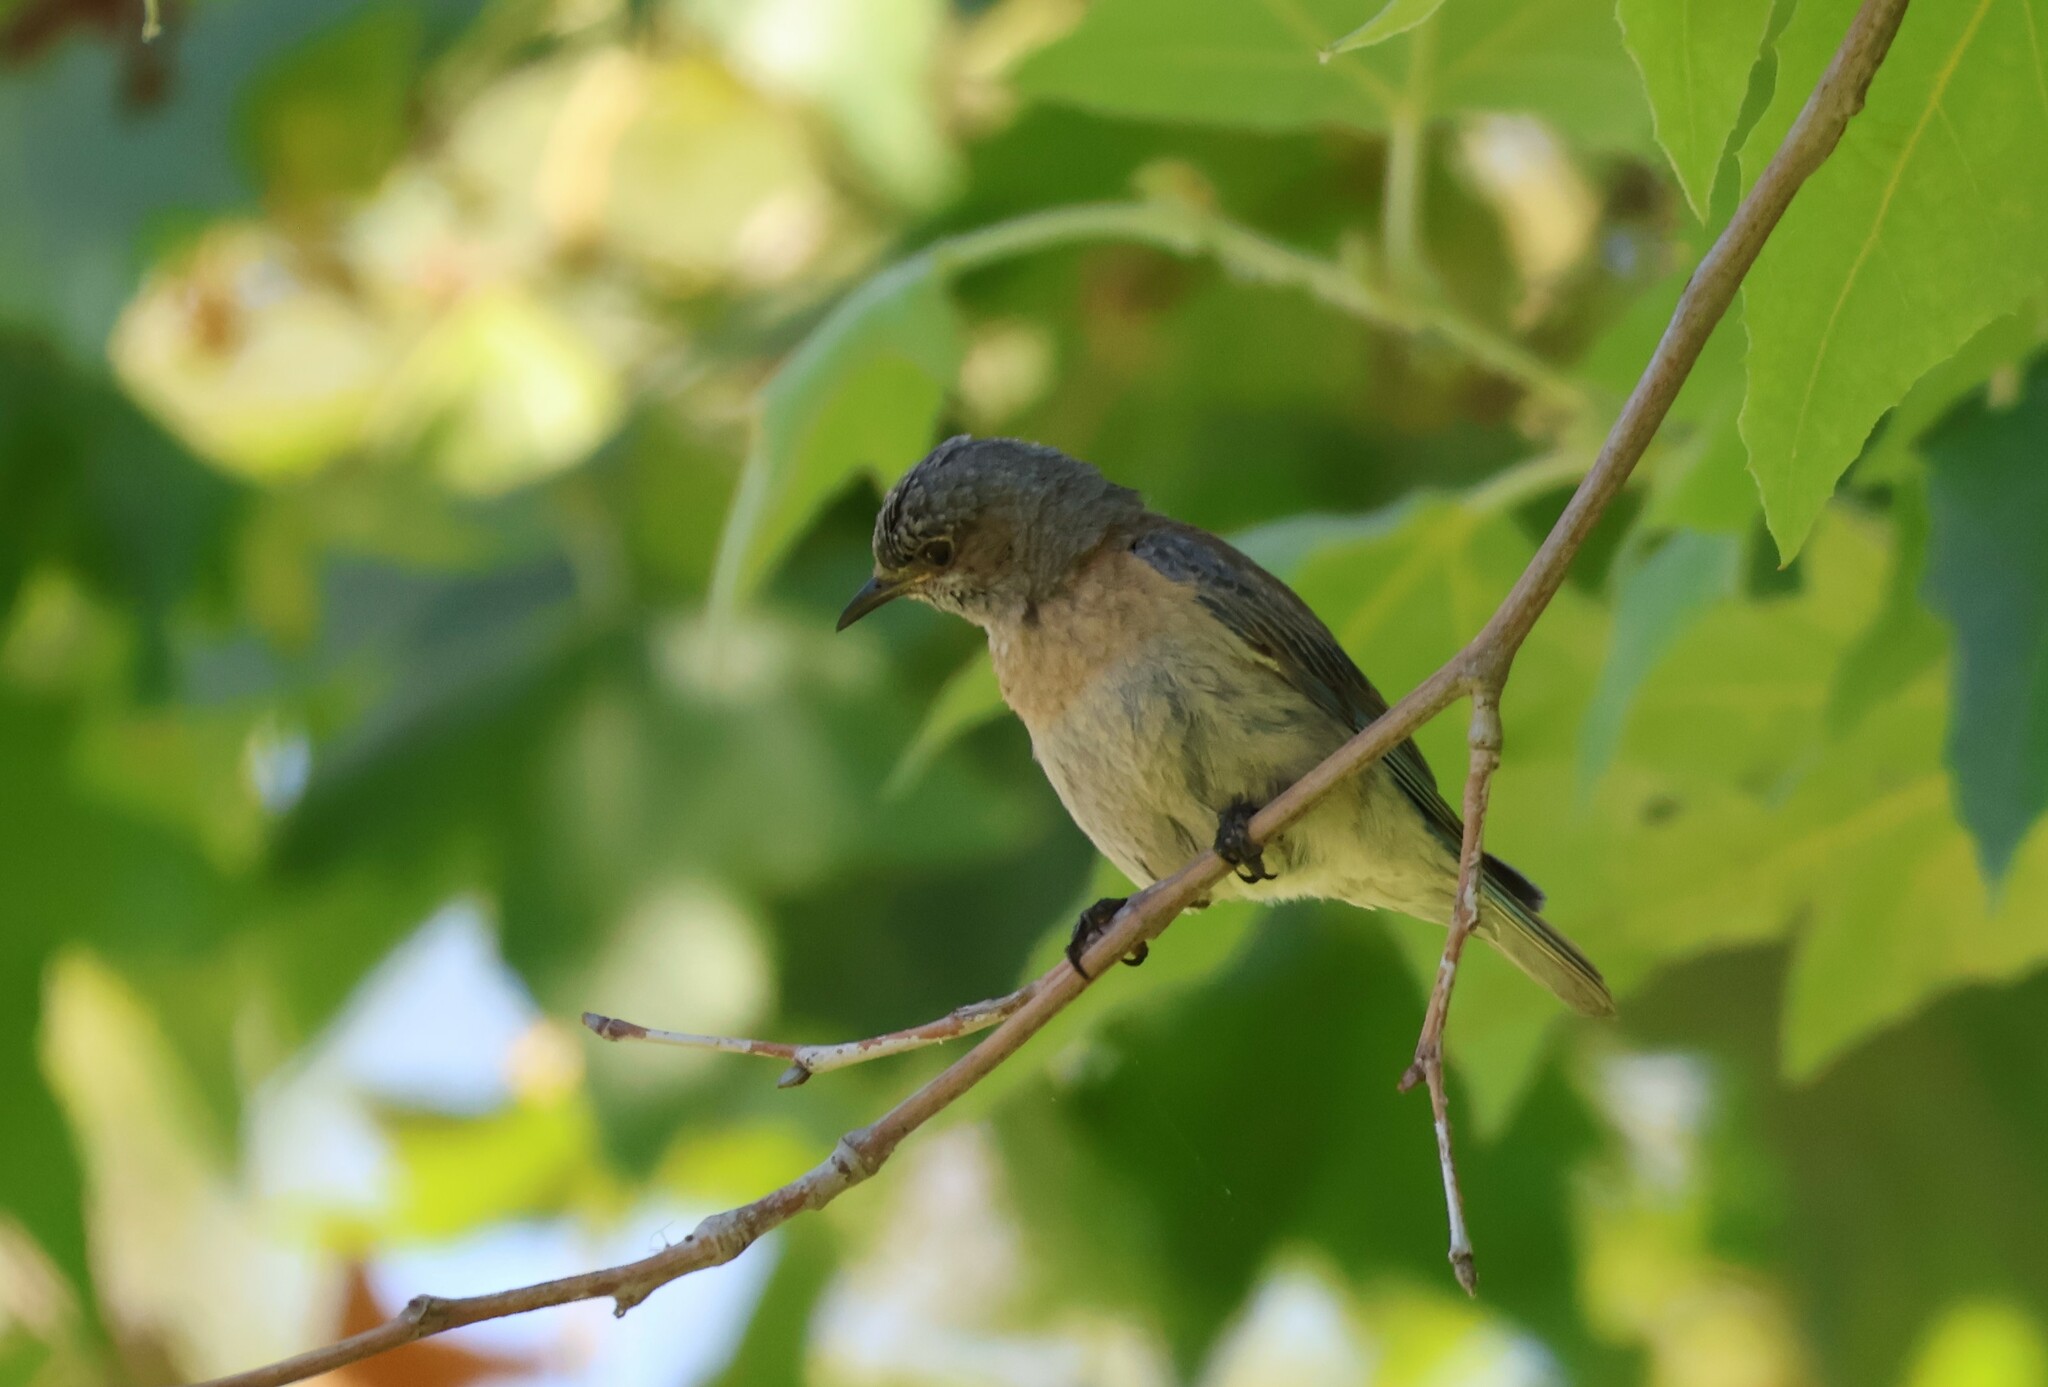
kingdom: Animalia
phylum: Chordata
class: Aves
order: Passeriformes
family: Turdidae
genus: Sialia
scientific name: Sialia mexicana
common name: Western bluebird
